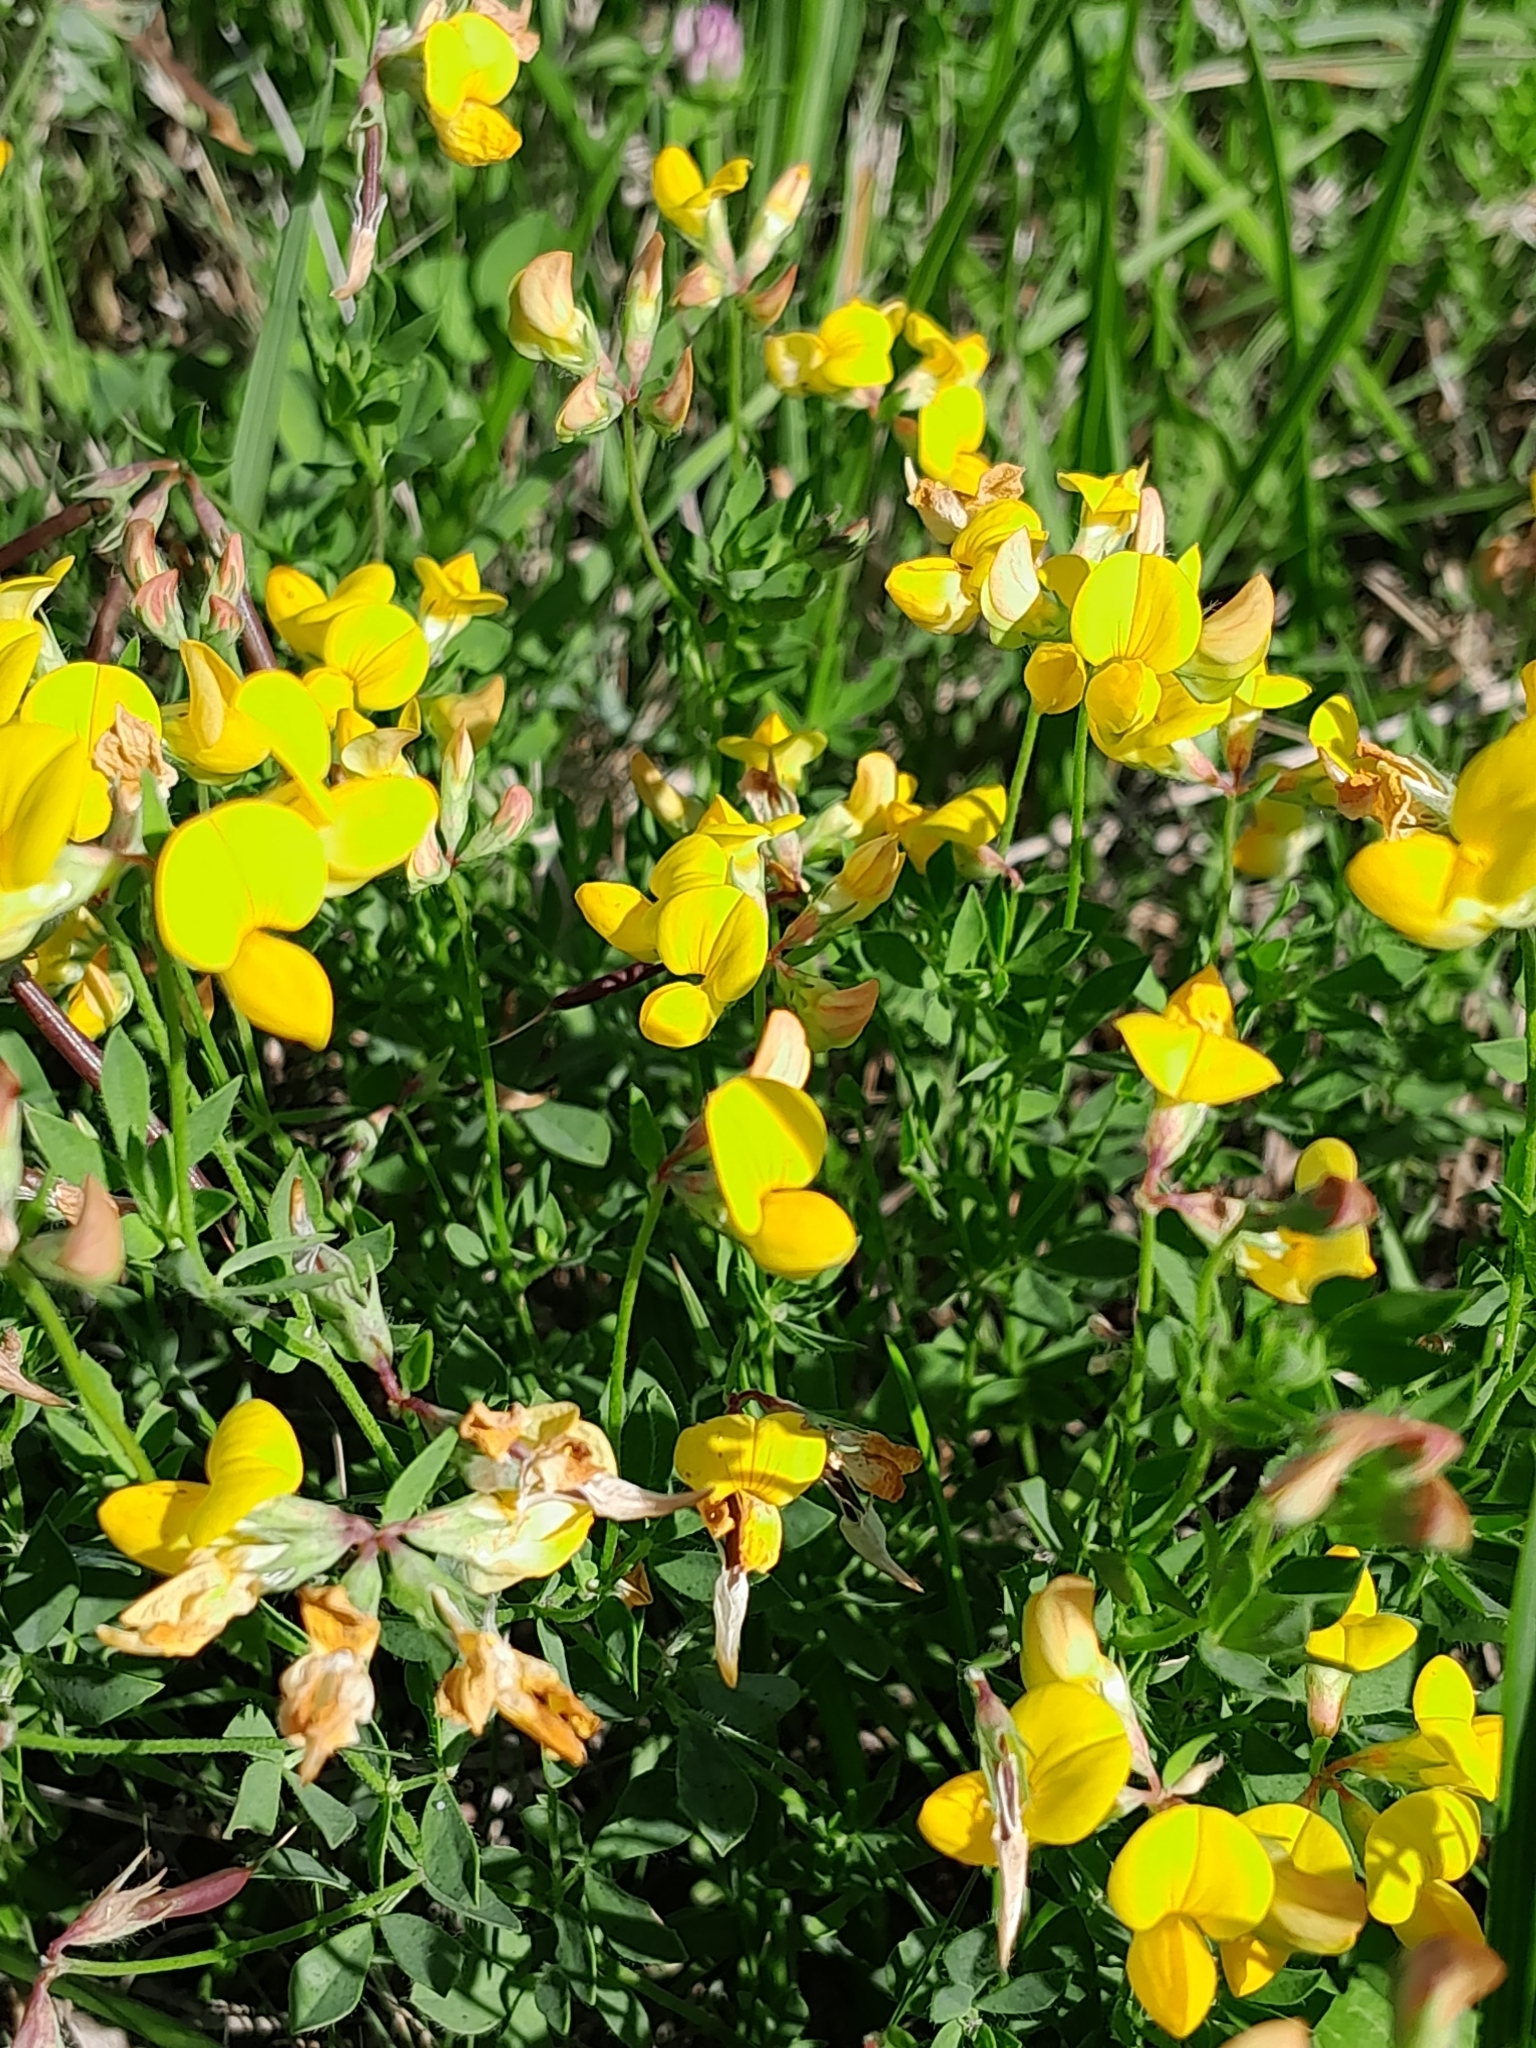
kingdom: Plantae
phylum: Tracheophyta
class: Magnoliopsida
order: Fabales
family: Fabaceae
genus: Lotus
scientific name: Lotus corniculatus
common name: Common bird's-foot-trefoil
